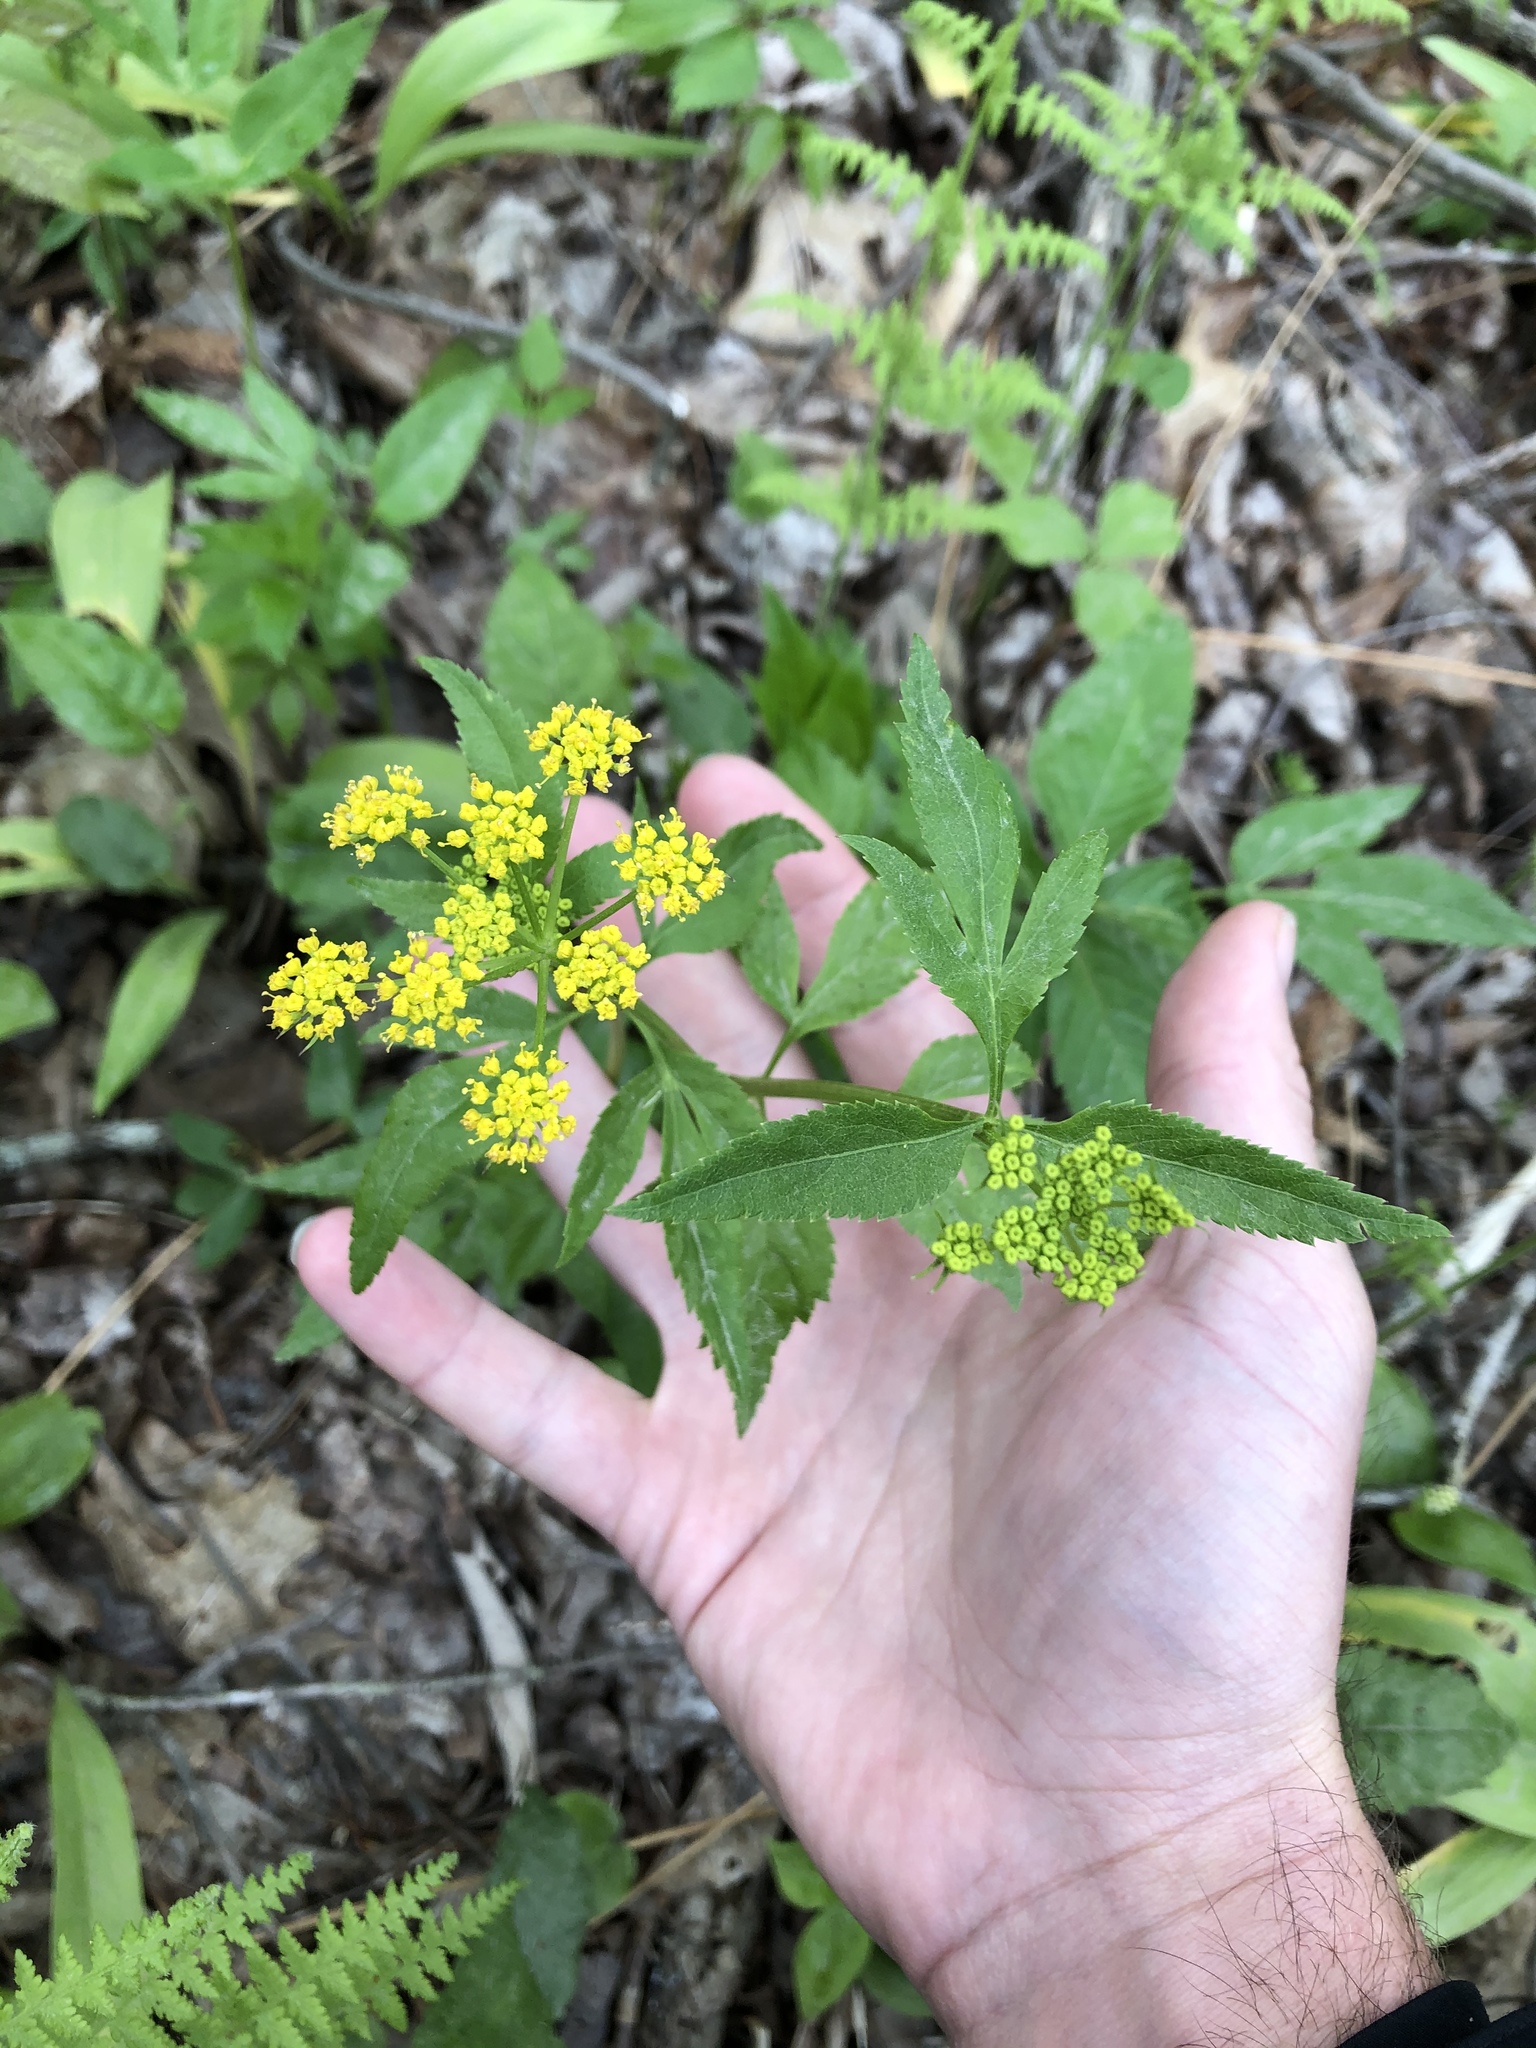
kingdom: Plantae
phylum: Tracheophyta
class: Magnoliopsida
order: Apiales
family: Apiaceae
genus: Zizia
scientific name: Zizia aurea
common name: Golden alexanders
